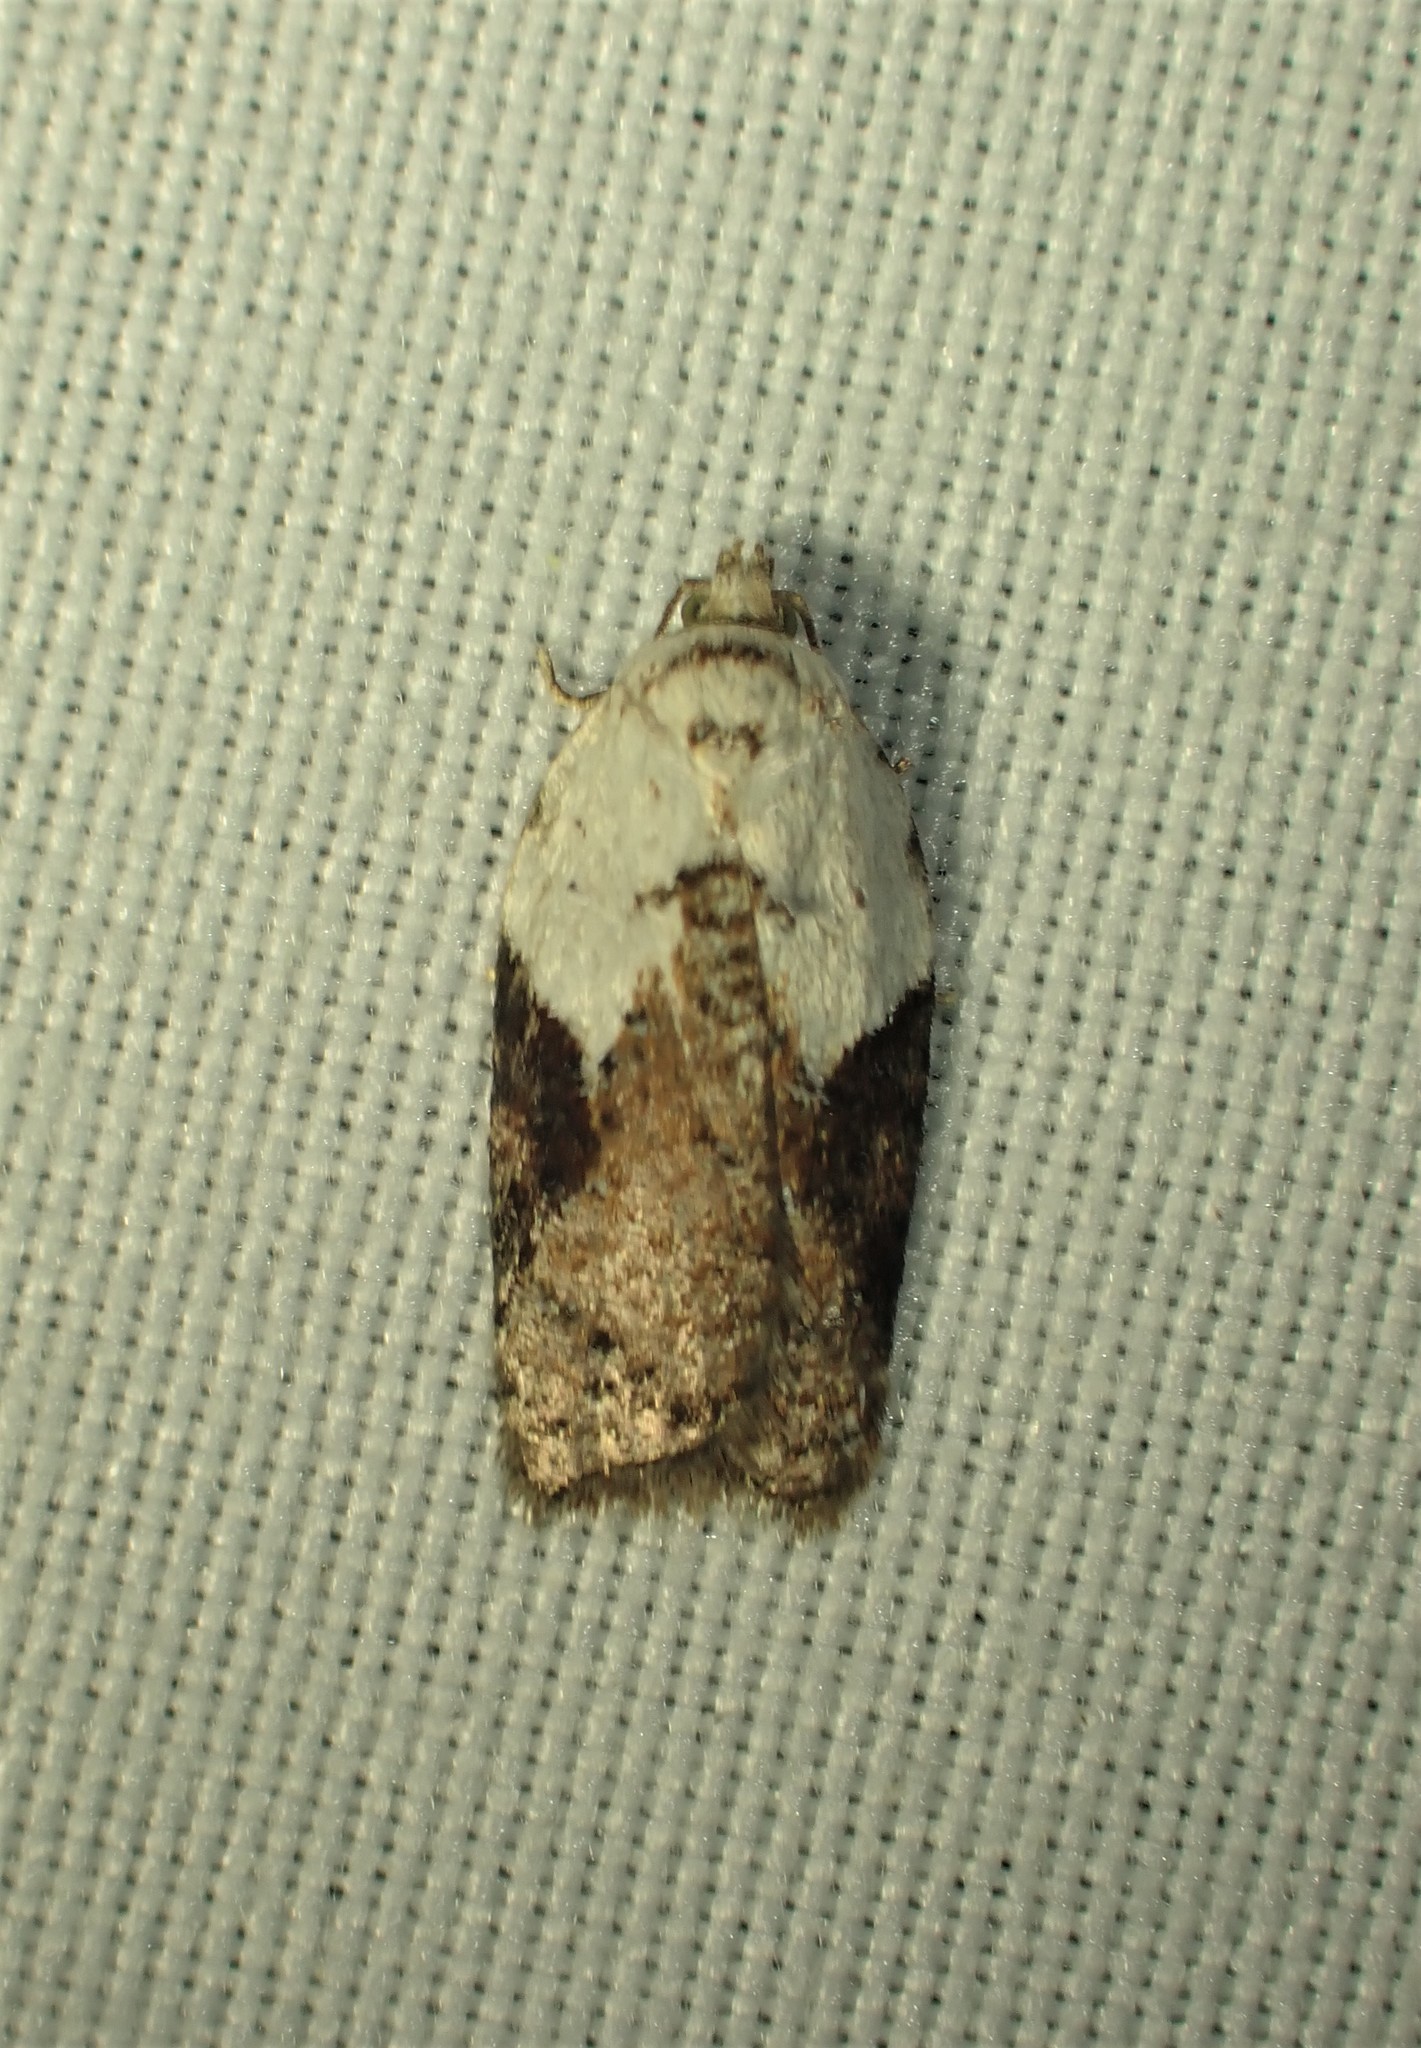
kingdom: Animalia
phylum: Arthropoda
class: Insecta
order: Lepidoptera
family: Tortricidae
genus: Acleris
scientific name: Acleris braunana
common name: Alder leafroller
